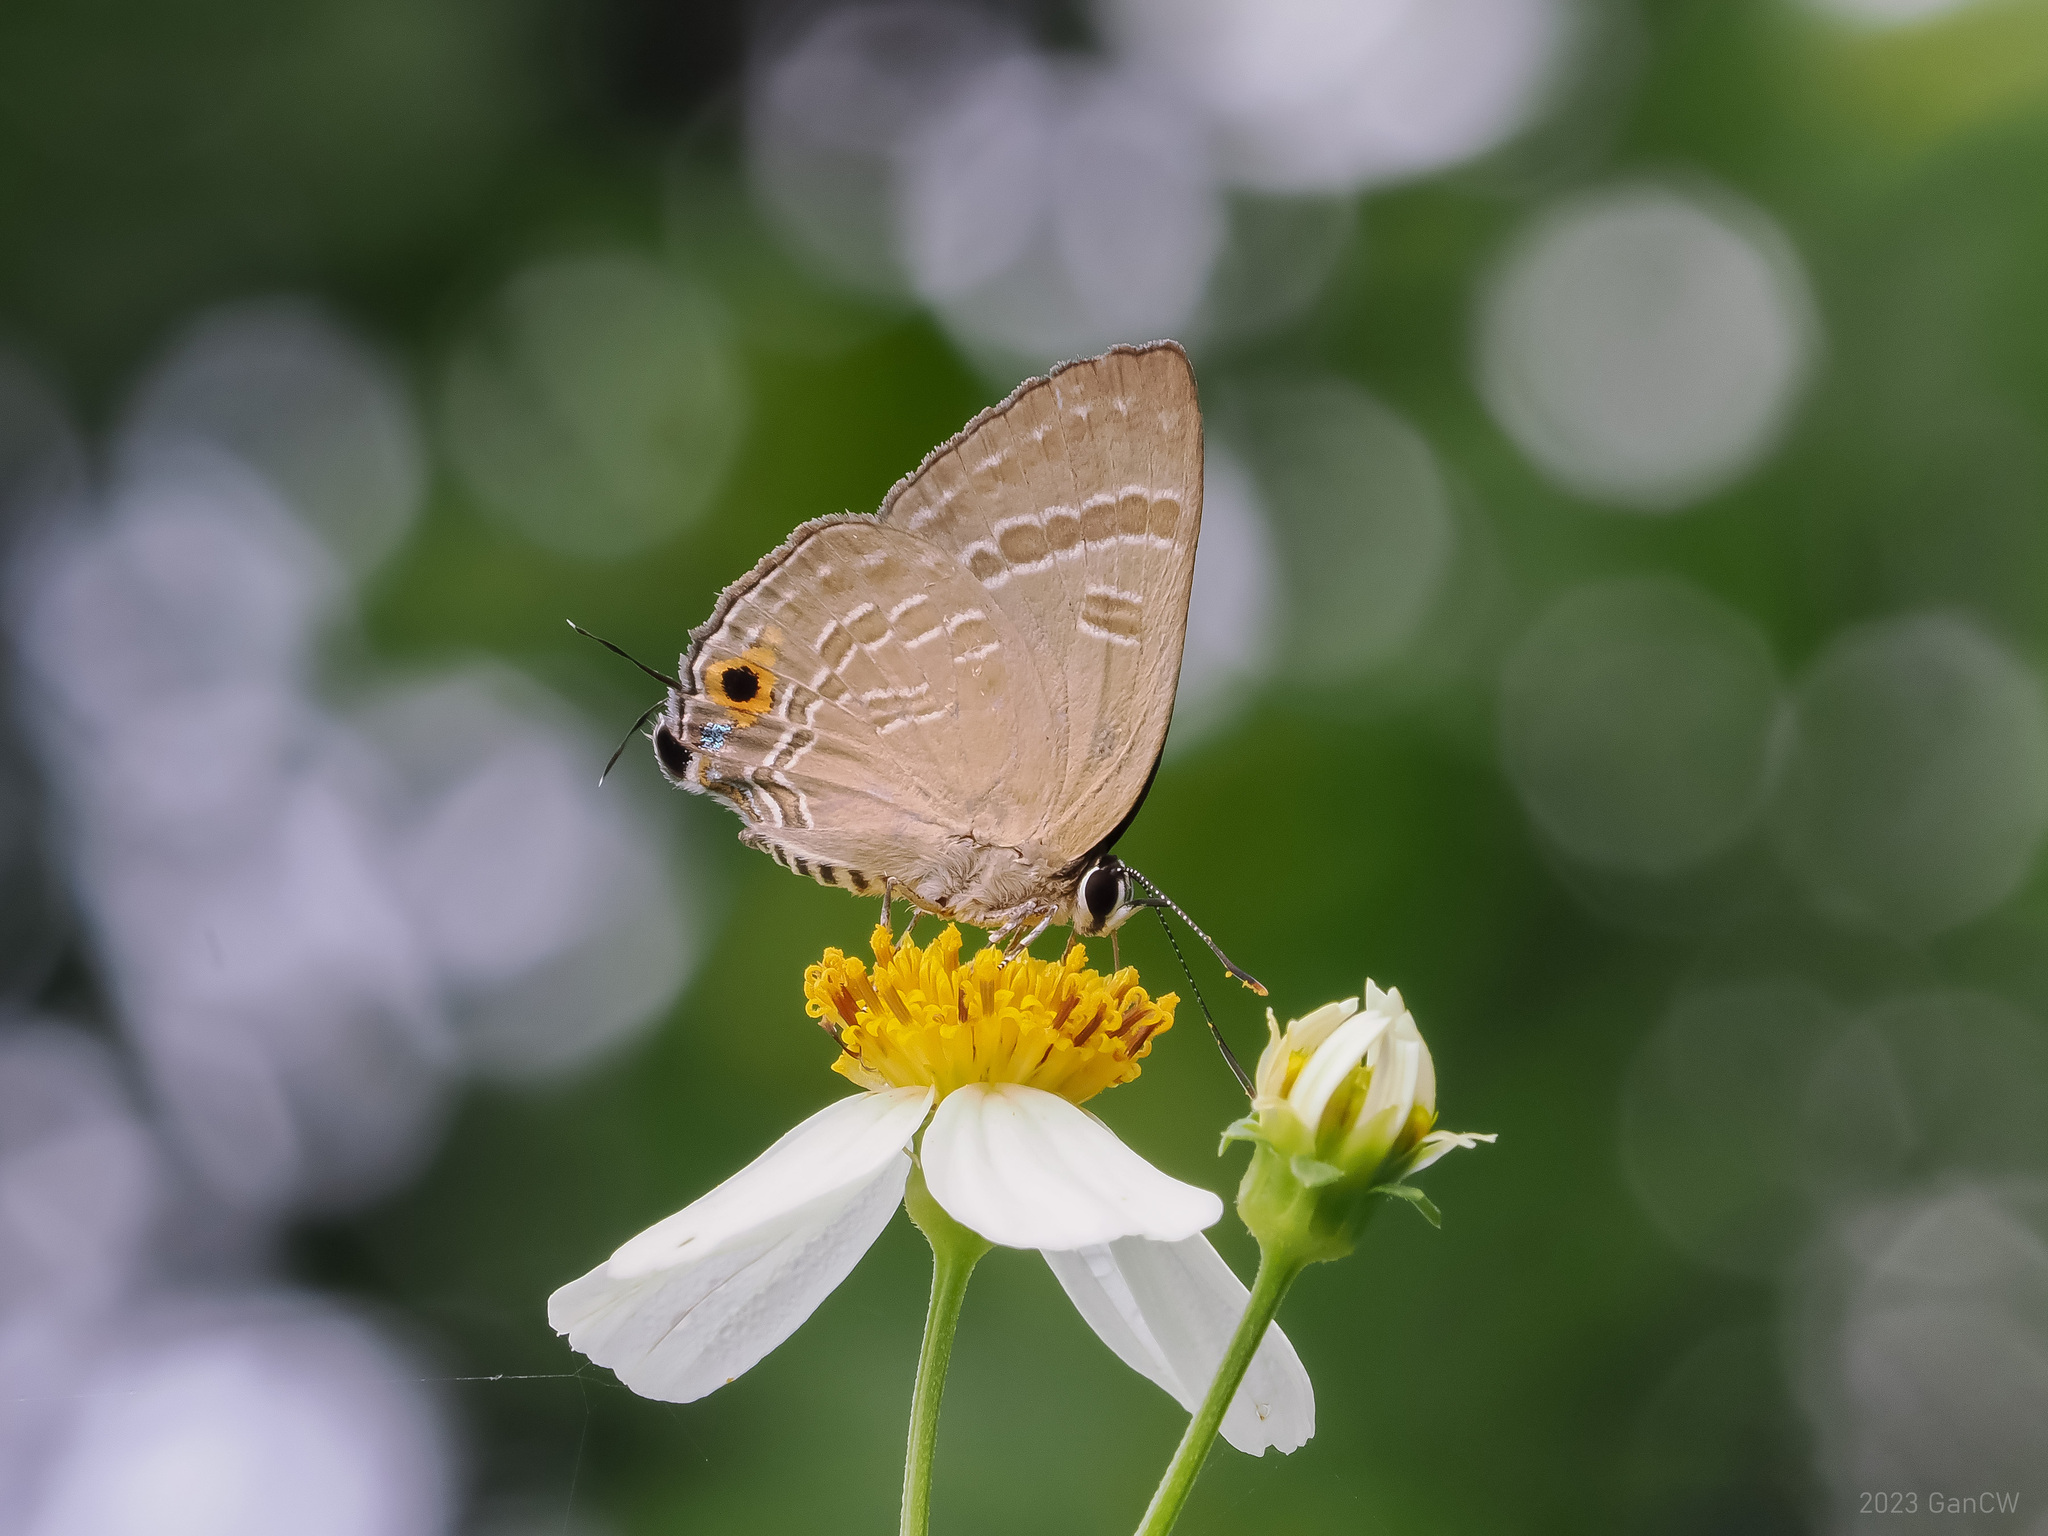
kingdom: Animalia
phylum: Arthropoda
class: Insecta
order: Lepidoptera
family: Lycaenidae
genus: Deudorix
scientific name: Deudorix epijarbas
